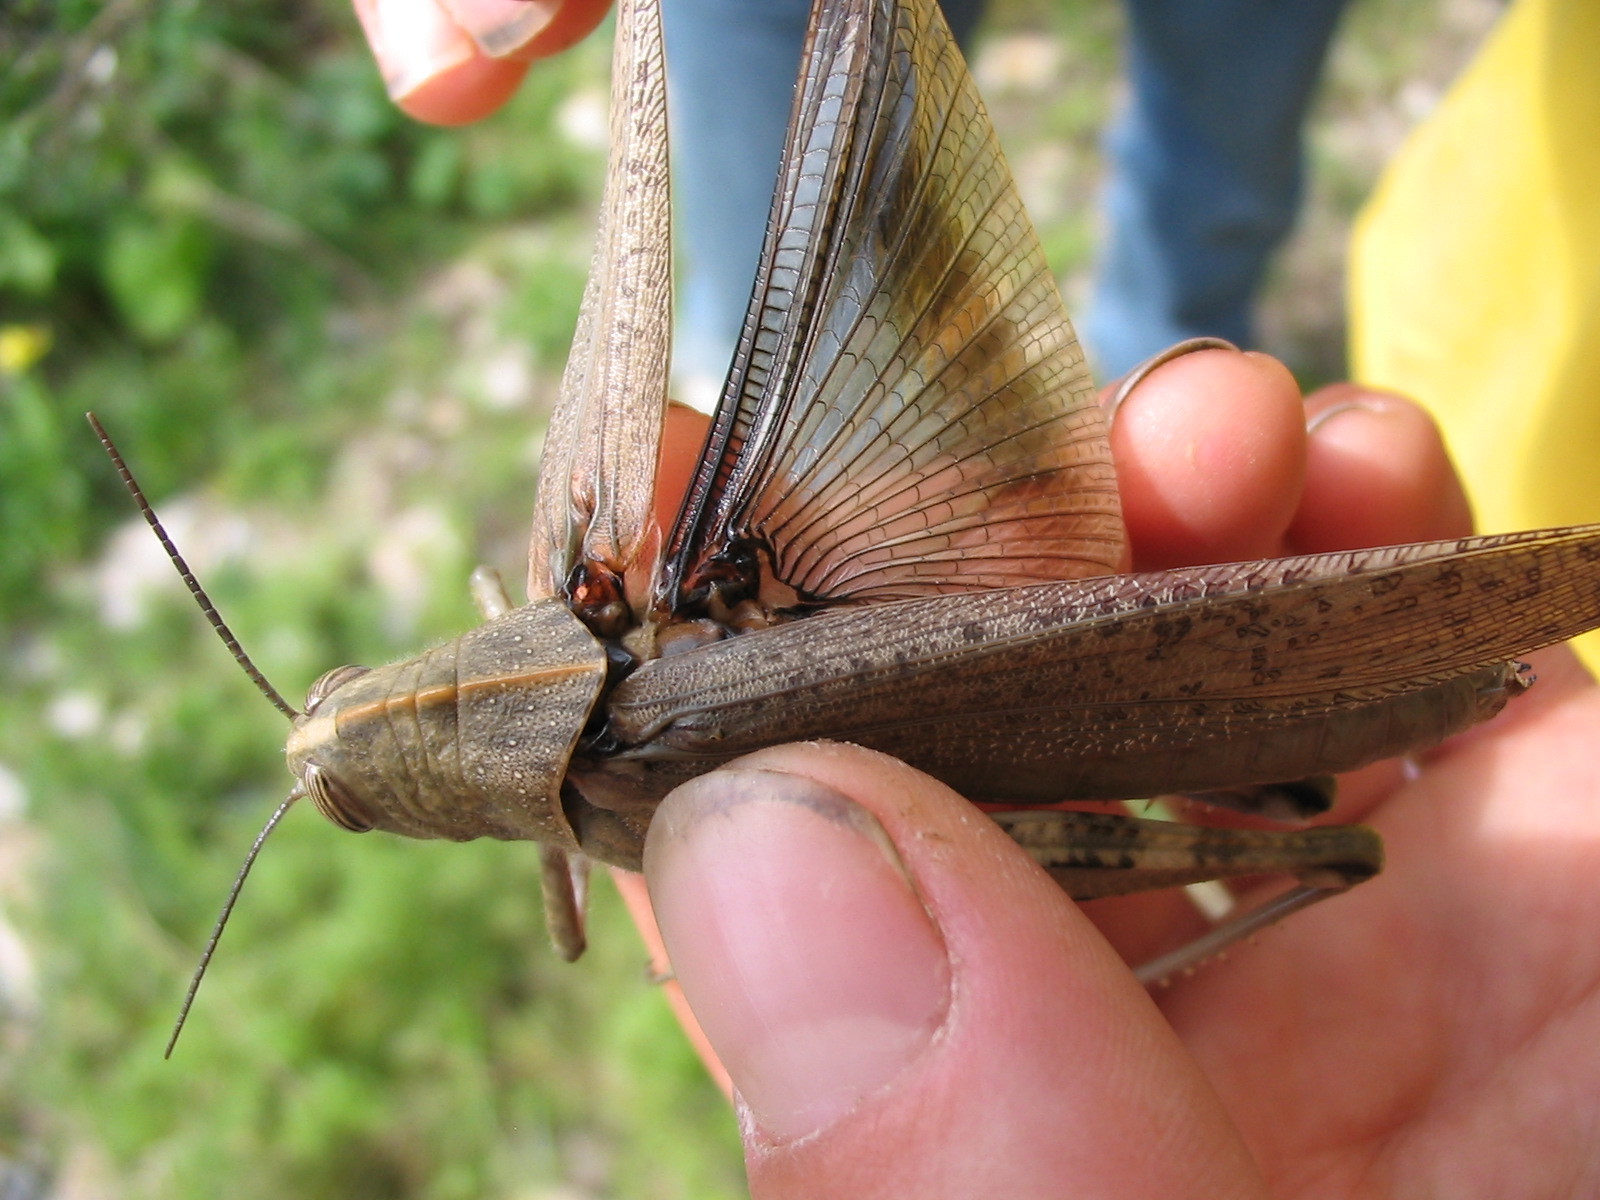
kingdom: Animalia
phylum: Arthropoda
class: Insecta
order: Orthoptera
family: Acrididae
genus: Anacridium
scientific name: Anacridium aegyptium
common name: Egyptian grasshopper
